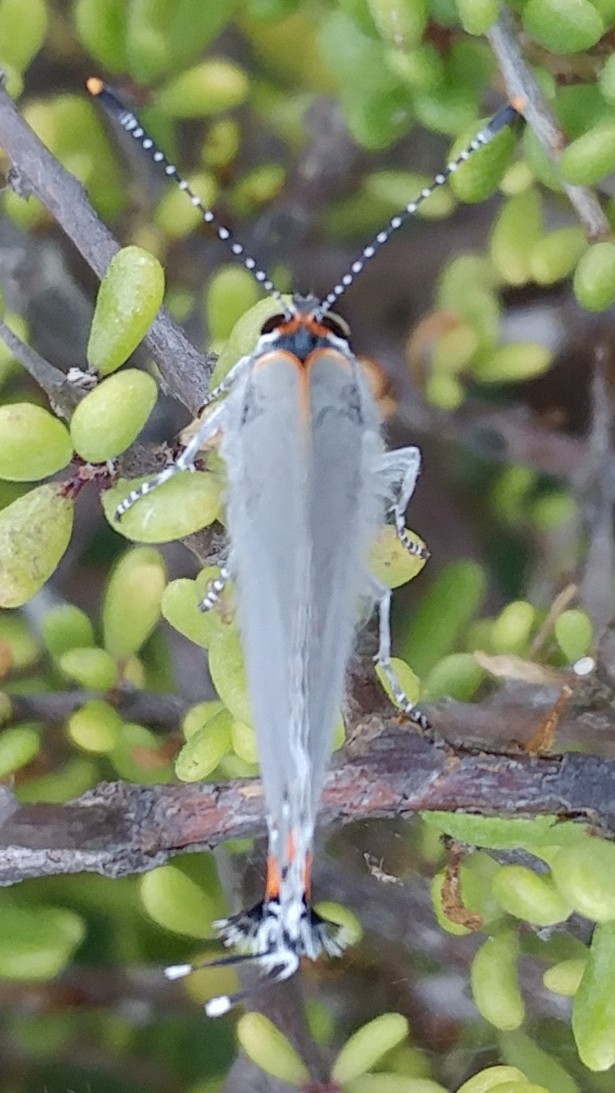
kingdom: Animalia
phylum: Arthropoda
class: Insecta
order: Lepidoptera
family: Lycaenidae
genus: Strymon
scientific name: Strymon melinus
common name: Gray hairstreak
